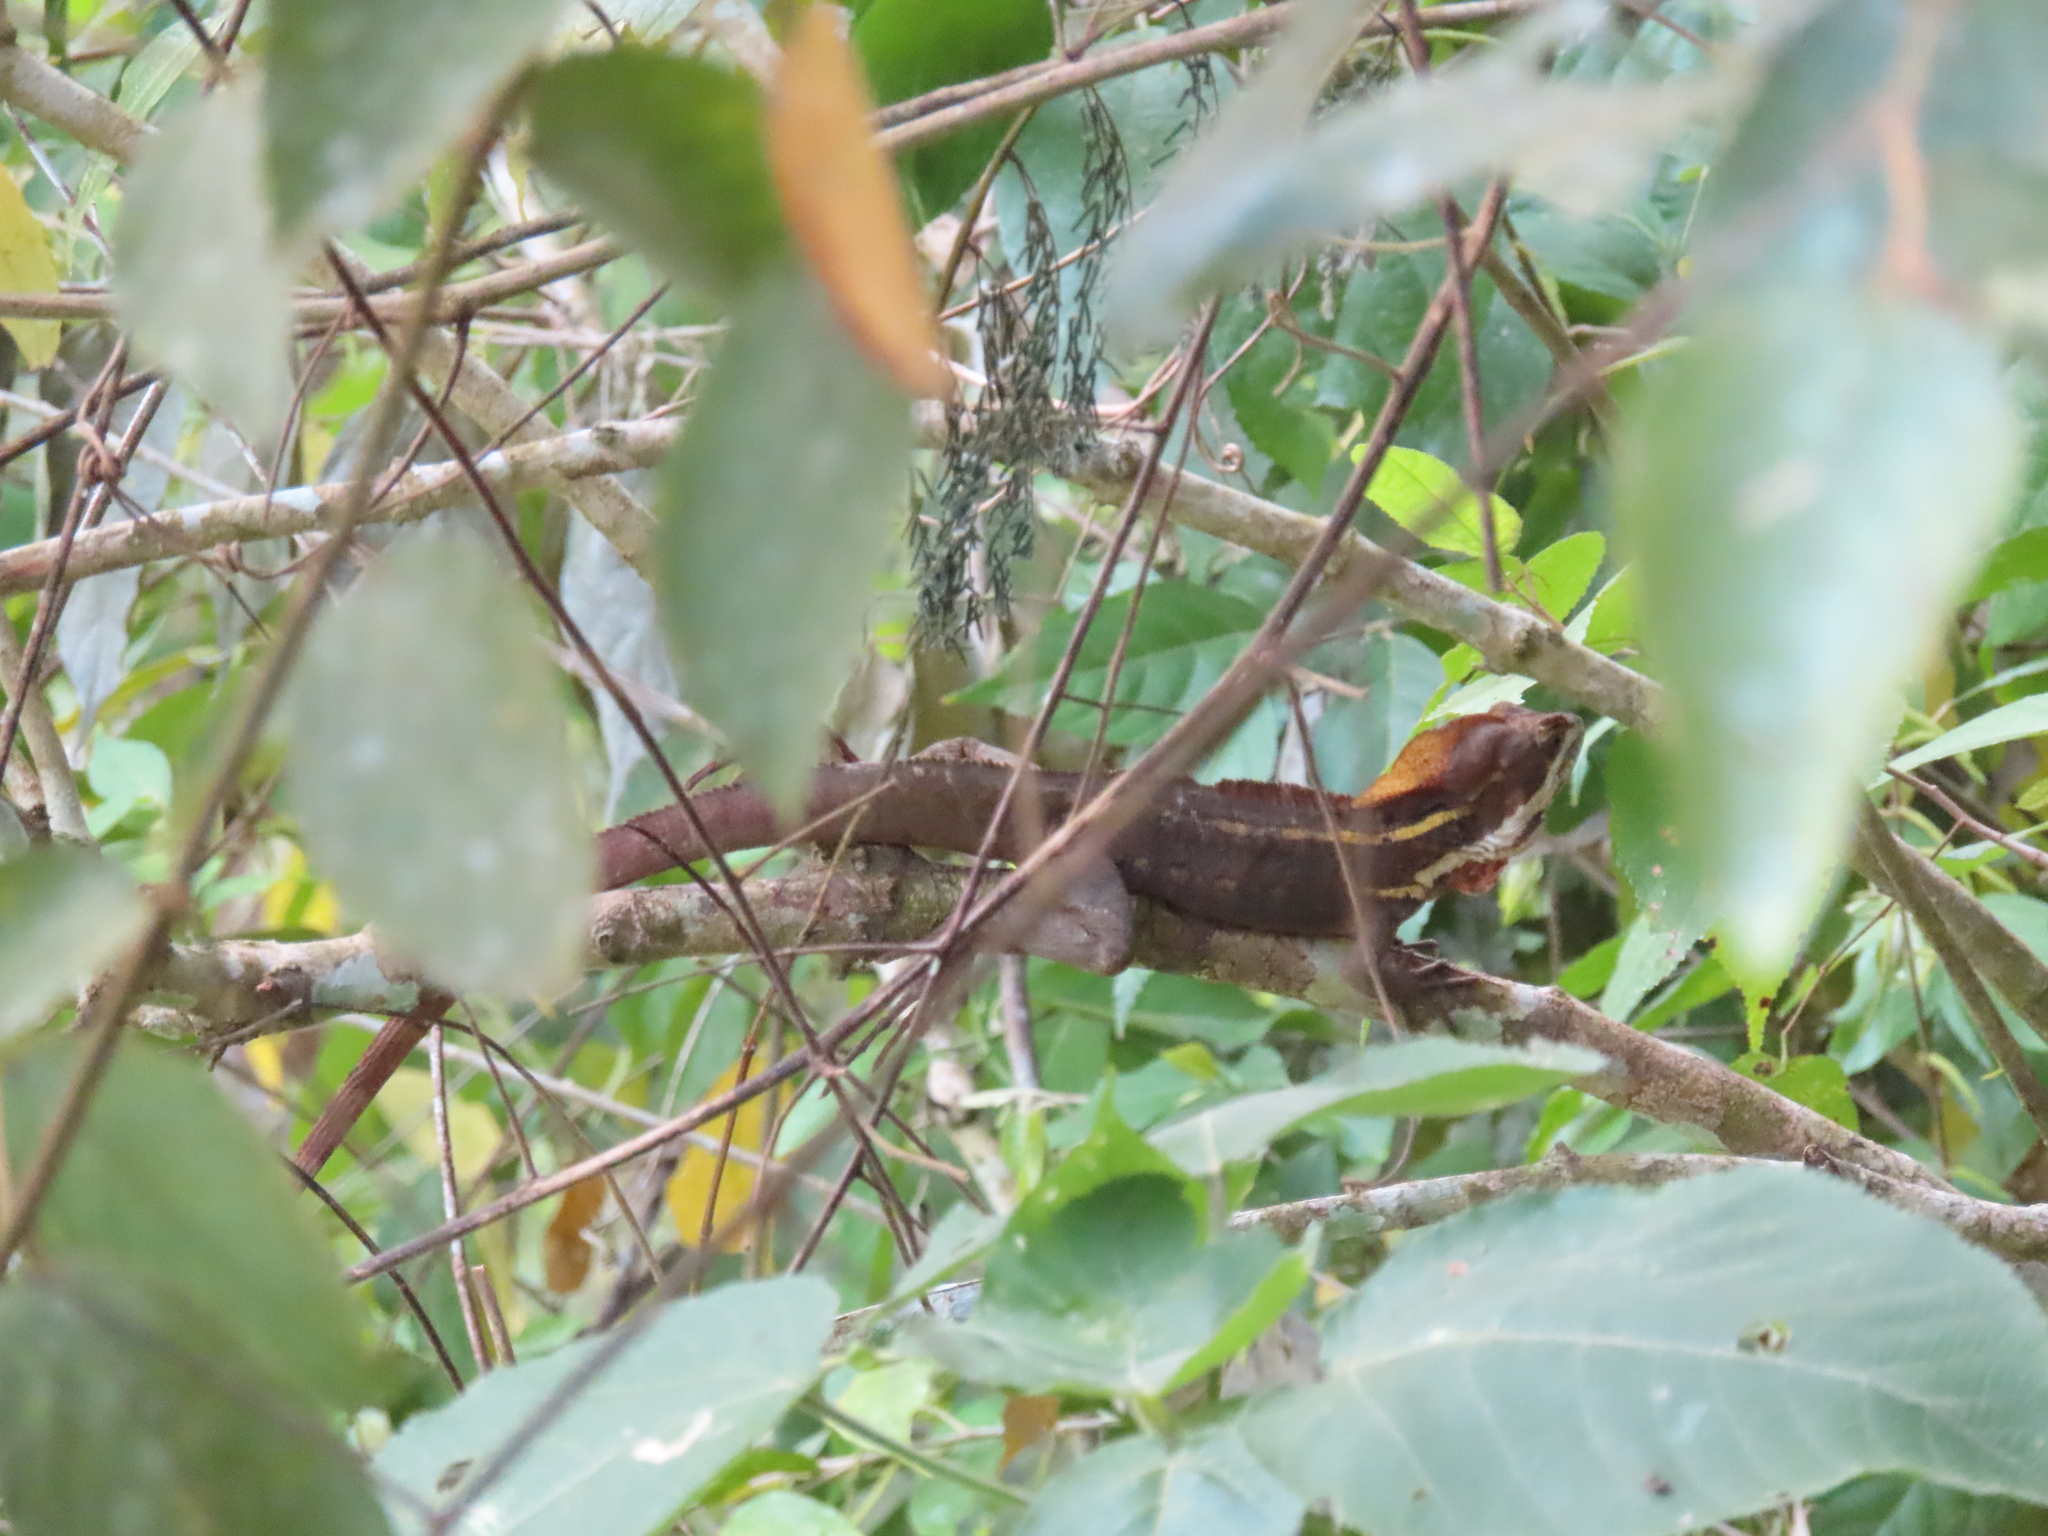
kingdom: Animalia
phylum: Chordata
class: Squamata
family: Corytophanidae
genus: Basiliscus
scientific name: Basiliscus vittatus
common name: Brown basilisk
